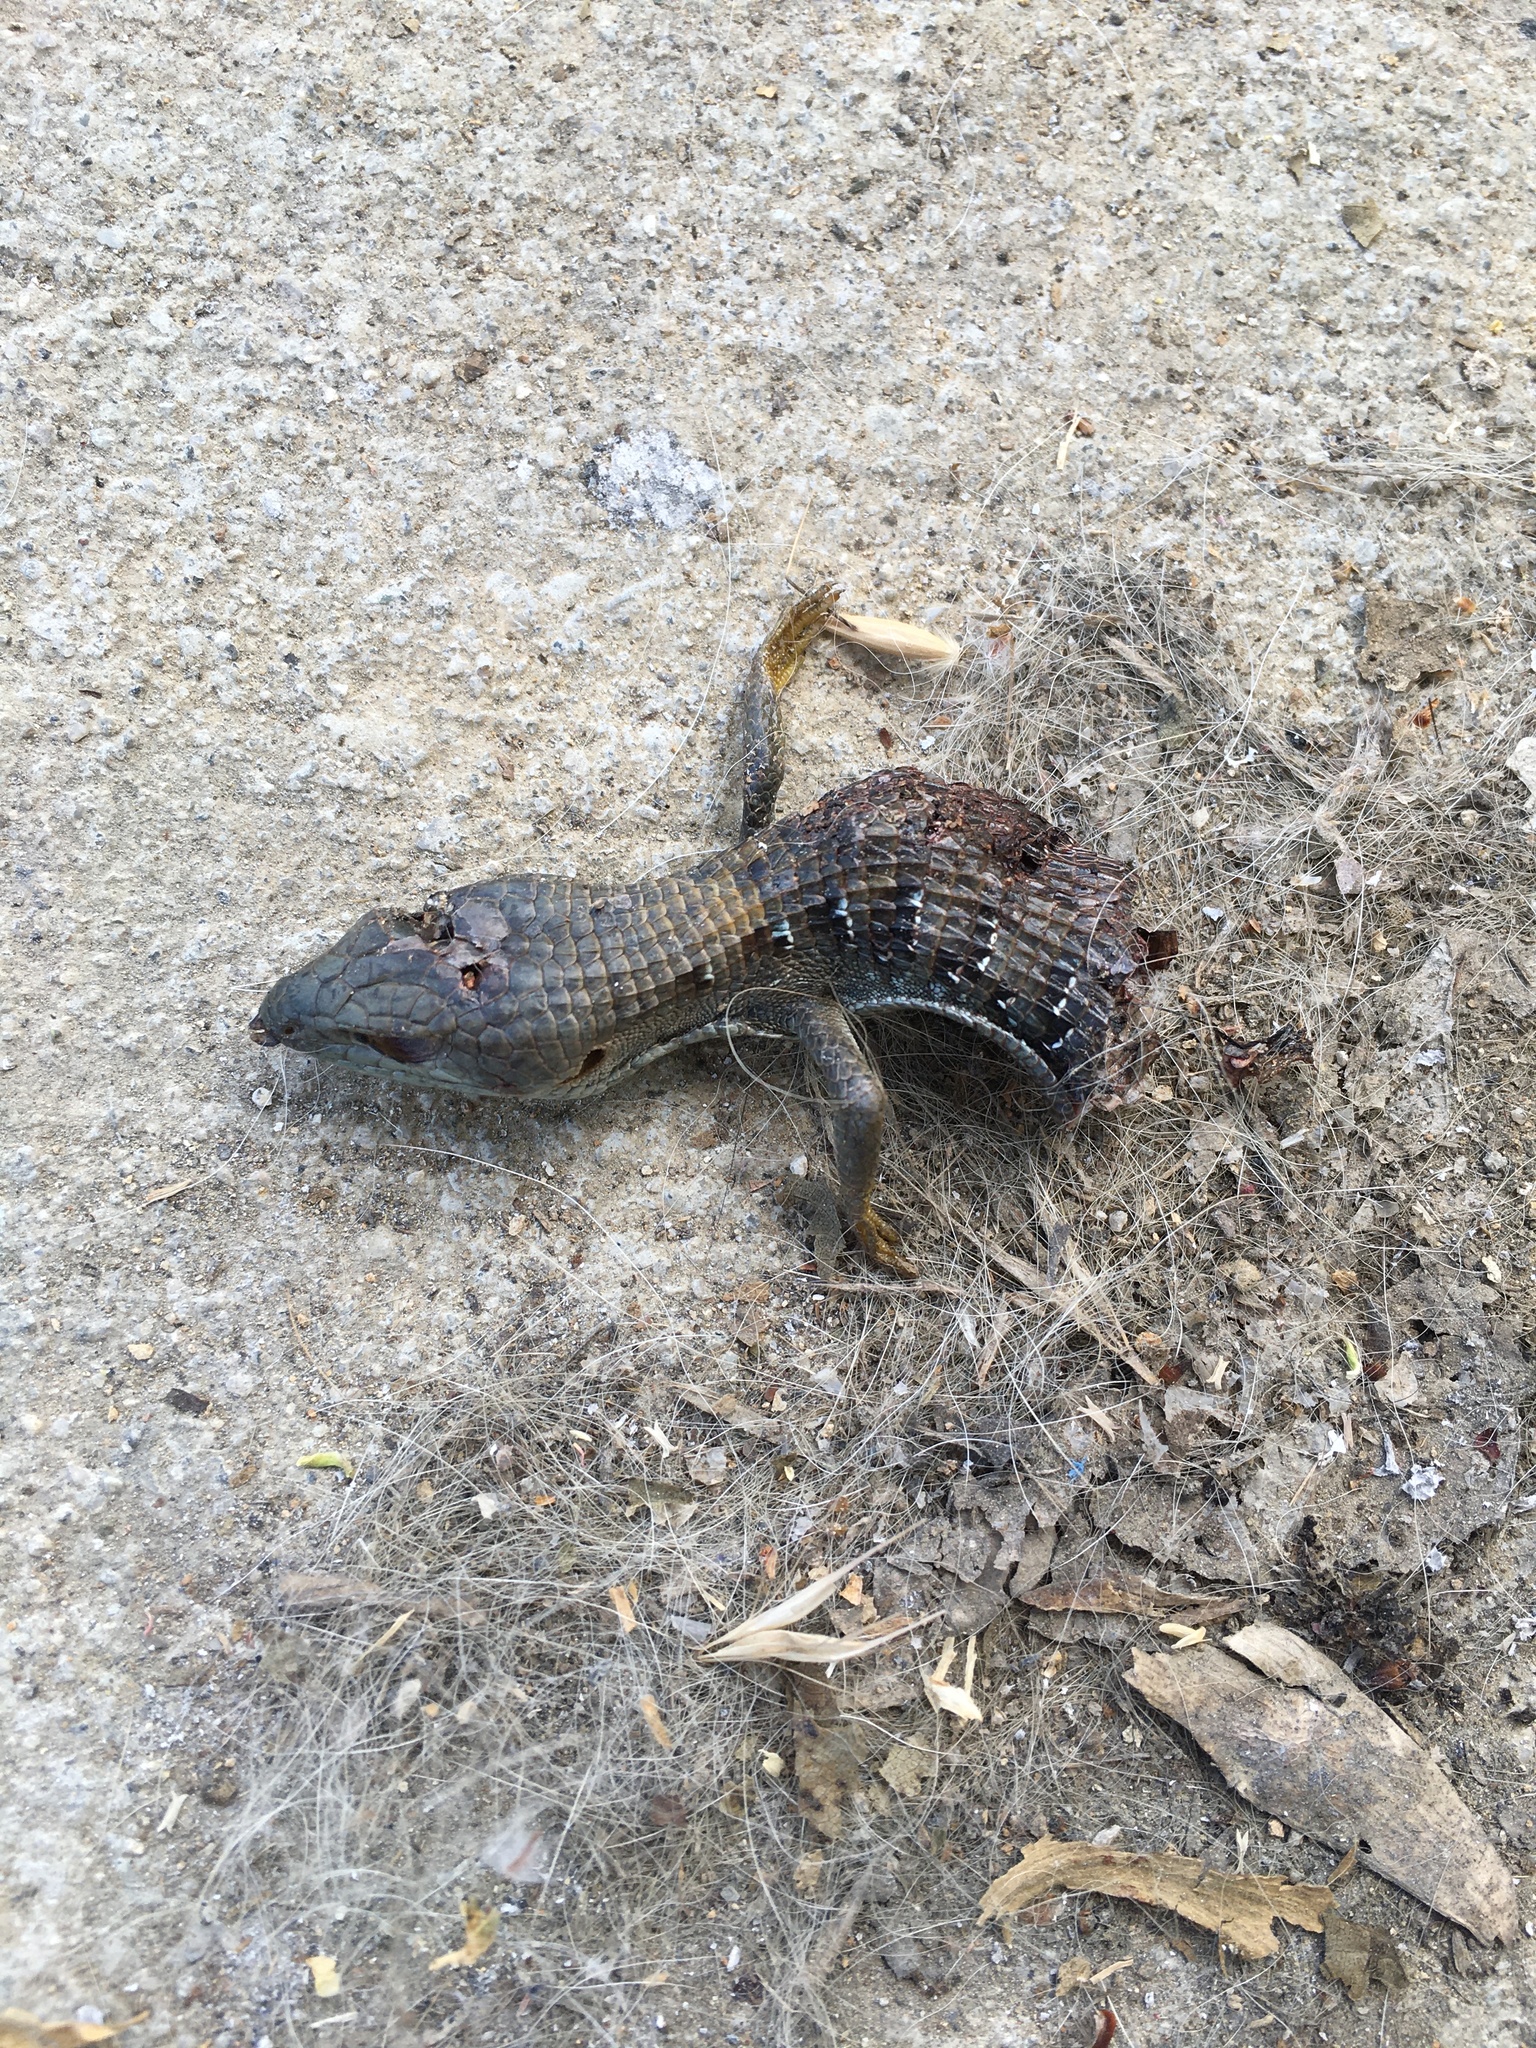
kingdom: Animalia
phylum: Chordata
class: Squamata
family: Anguidae
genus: Elgaria
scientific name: Elgaria multicarinata
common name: Southern alligator lizard
